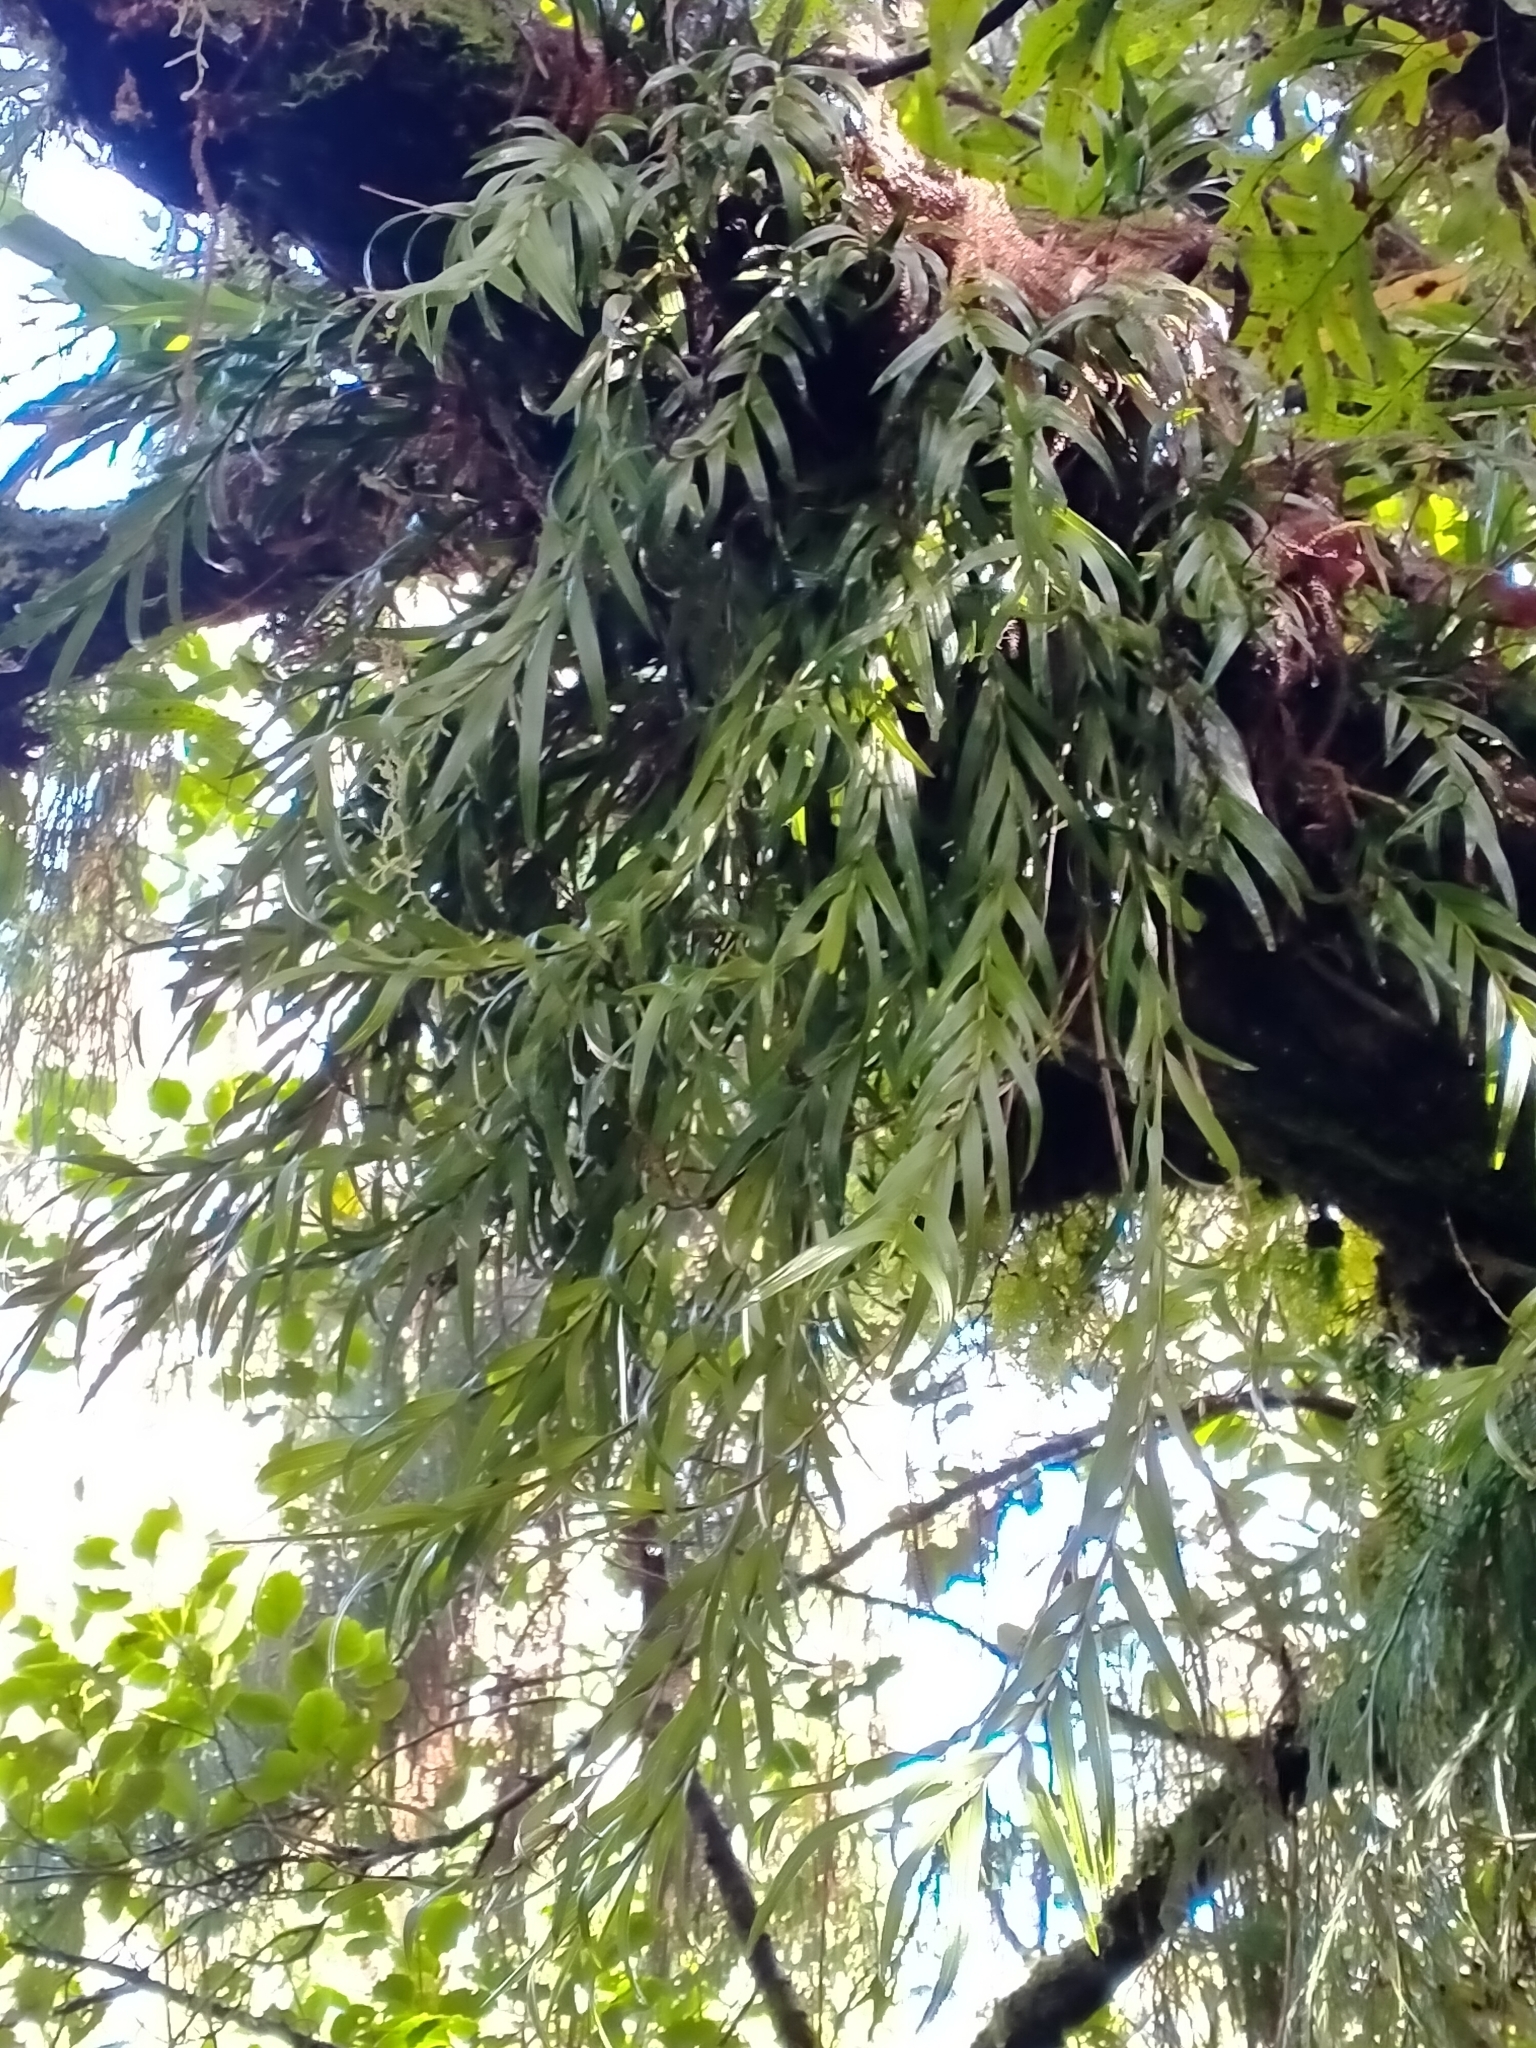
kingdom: Plantae
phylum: Tracheophyta
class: Liliopsida
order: Asparagales
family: Orchidaceae
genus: Earina
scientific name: Earina autumnalis
